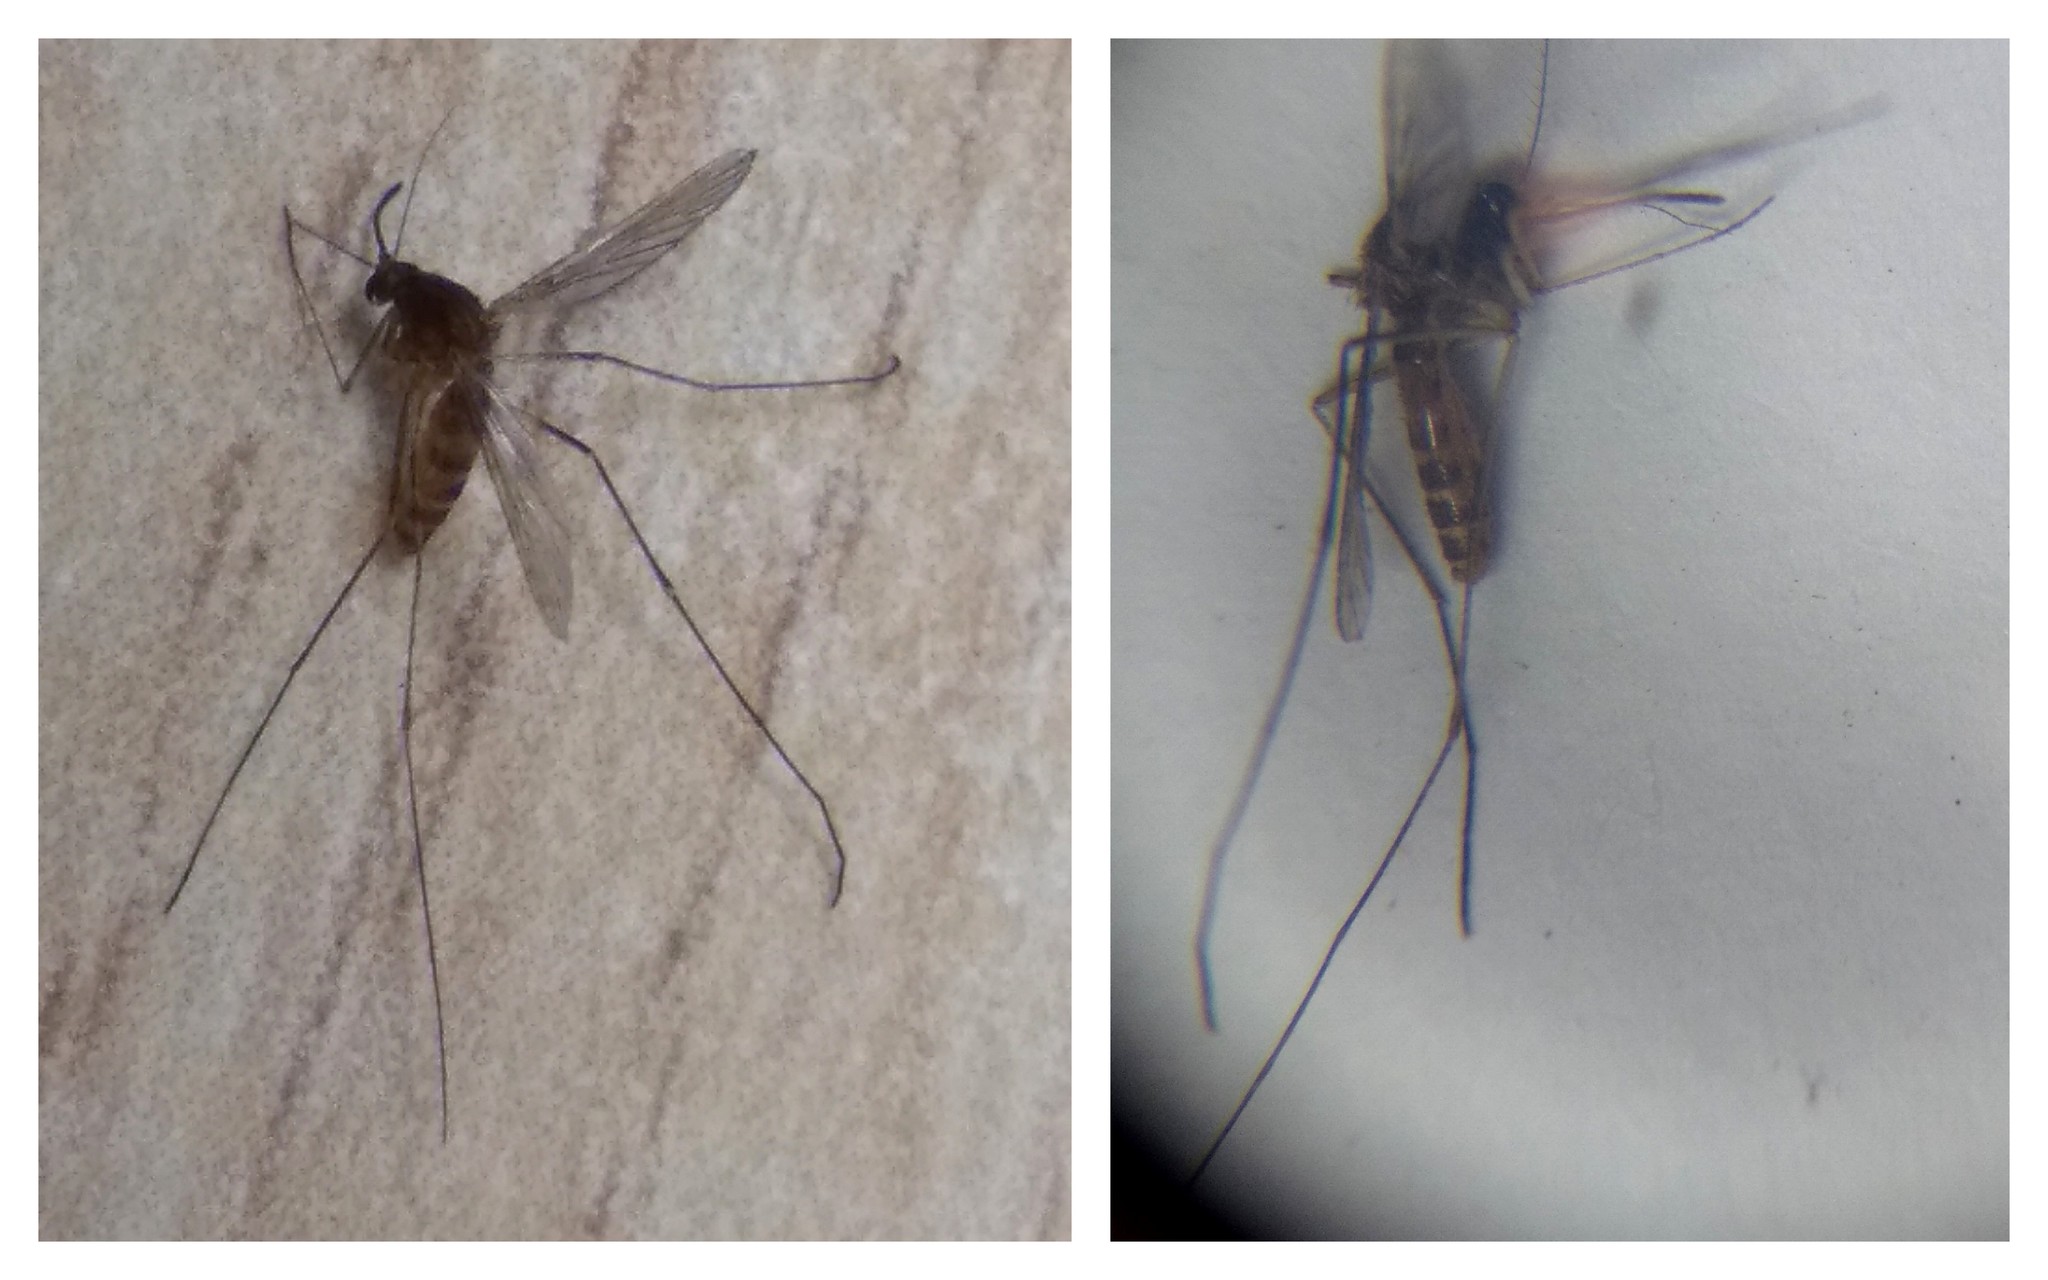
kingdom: Animalia
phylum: Arthropoda
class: Insecta
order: Diptera
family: Culicidae
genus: Culex
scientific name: Culex
